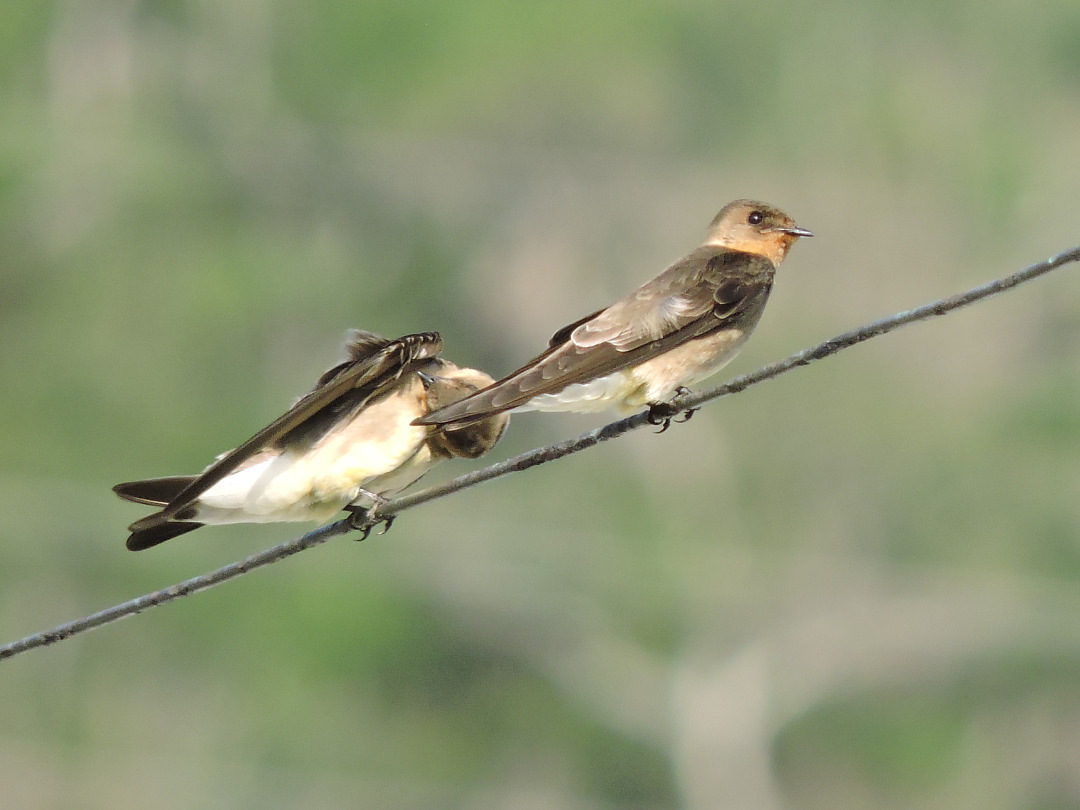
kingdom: Animalia
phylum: Chordata
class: Aves
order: Passeriformes
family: Hirundinidae
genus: Stelgidopteryx
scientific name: Stelgidopteryx ruficollis
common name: Southern rough-winged swallow
